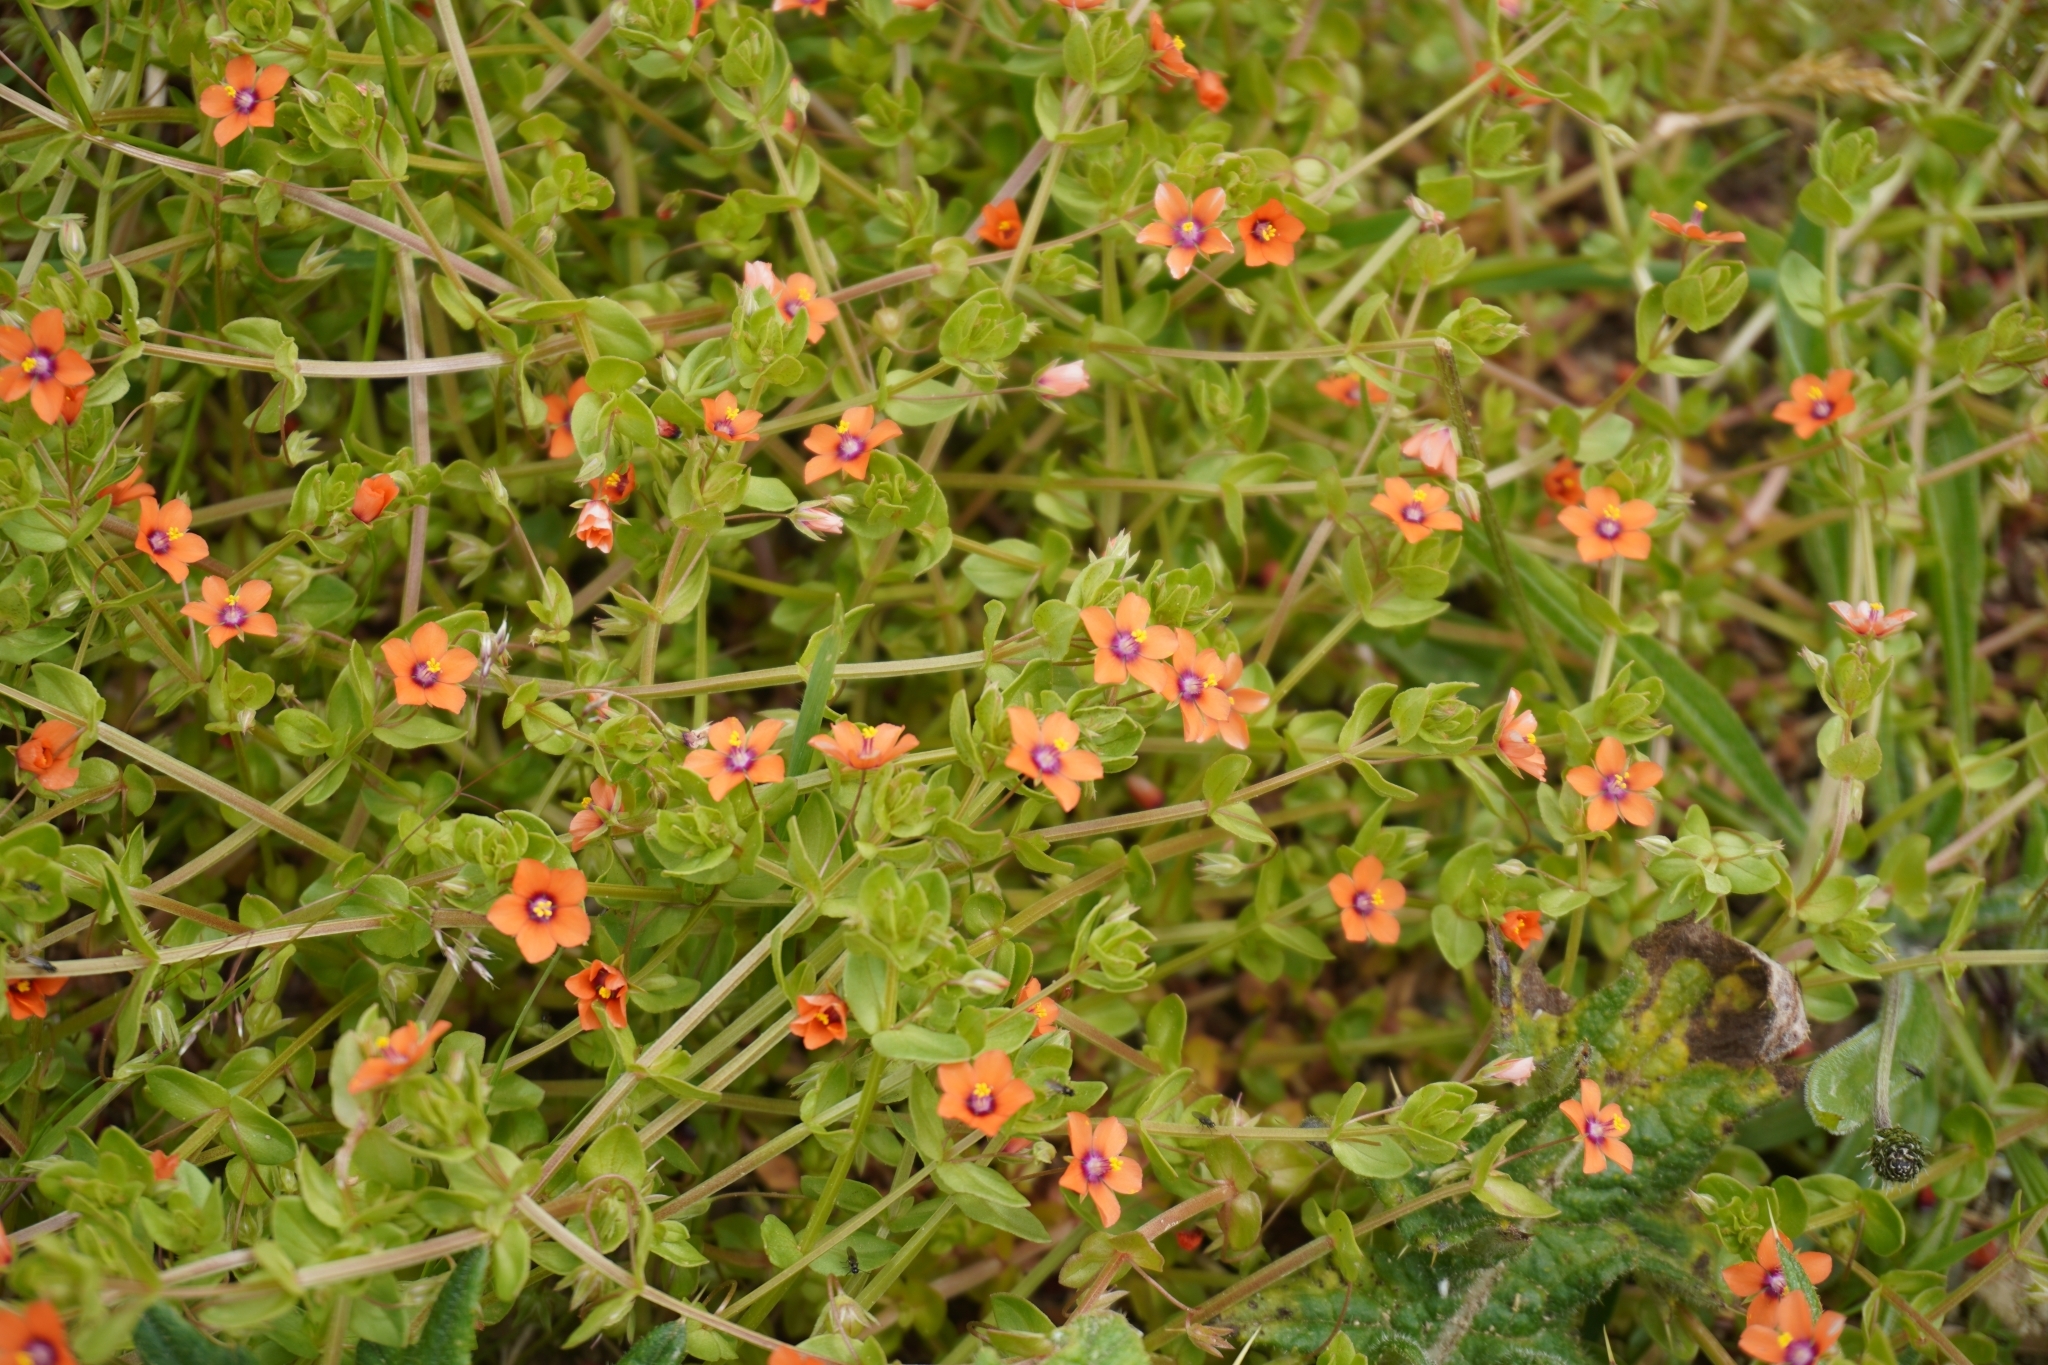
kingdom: Plantae
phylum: Tracheophyta
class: Magnoliopsida
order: Ericales
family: Primulaceae
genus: Lysimachia
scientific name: Lysimachia arvensis
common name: Scarlet pimpernel
